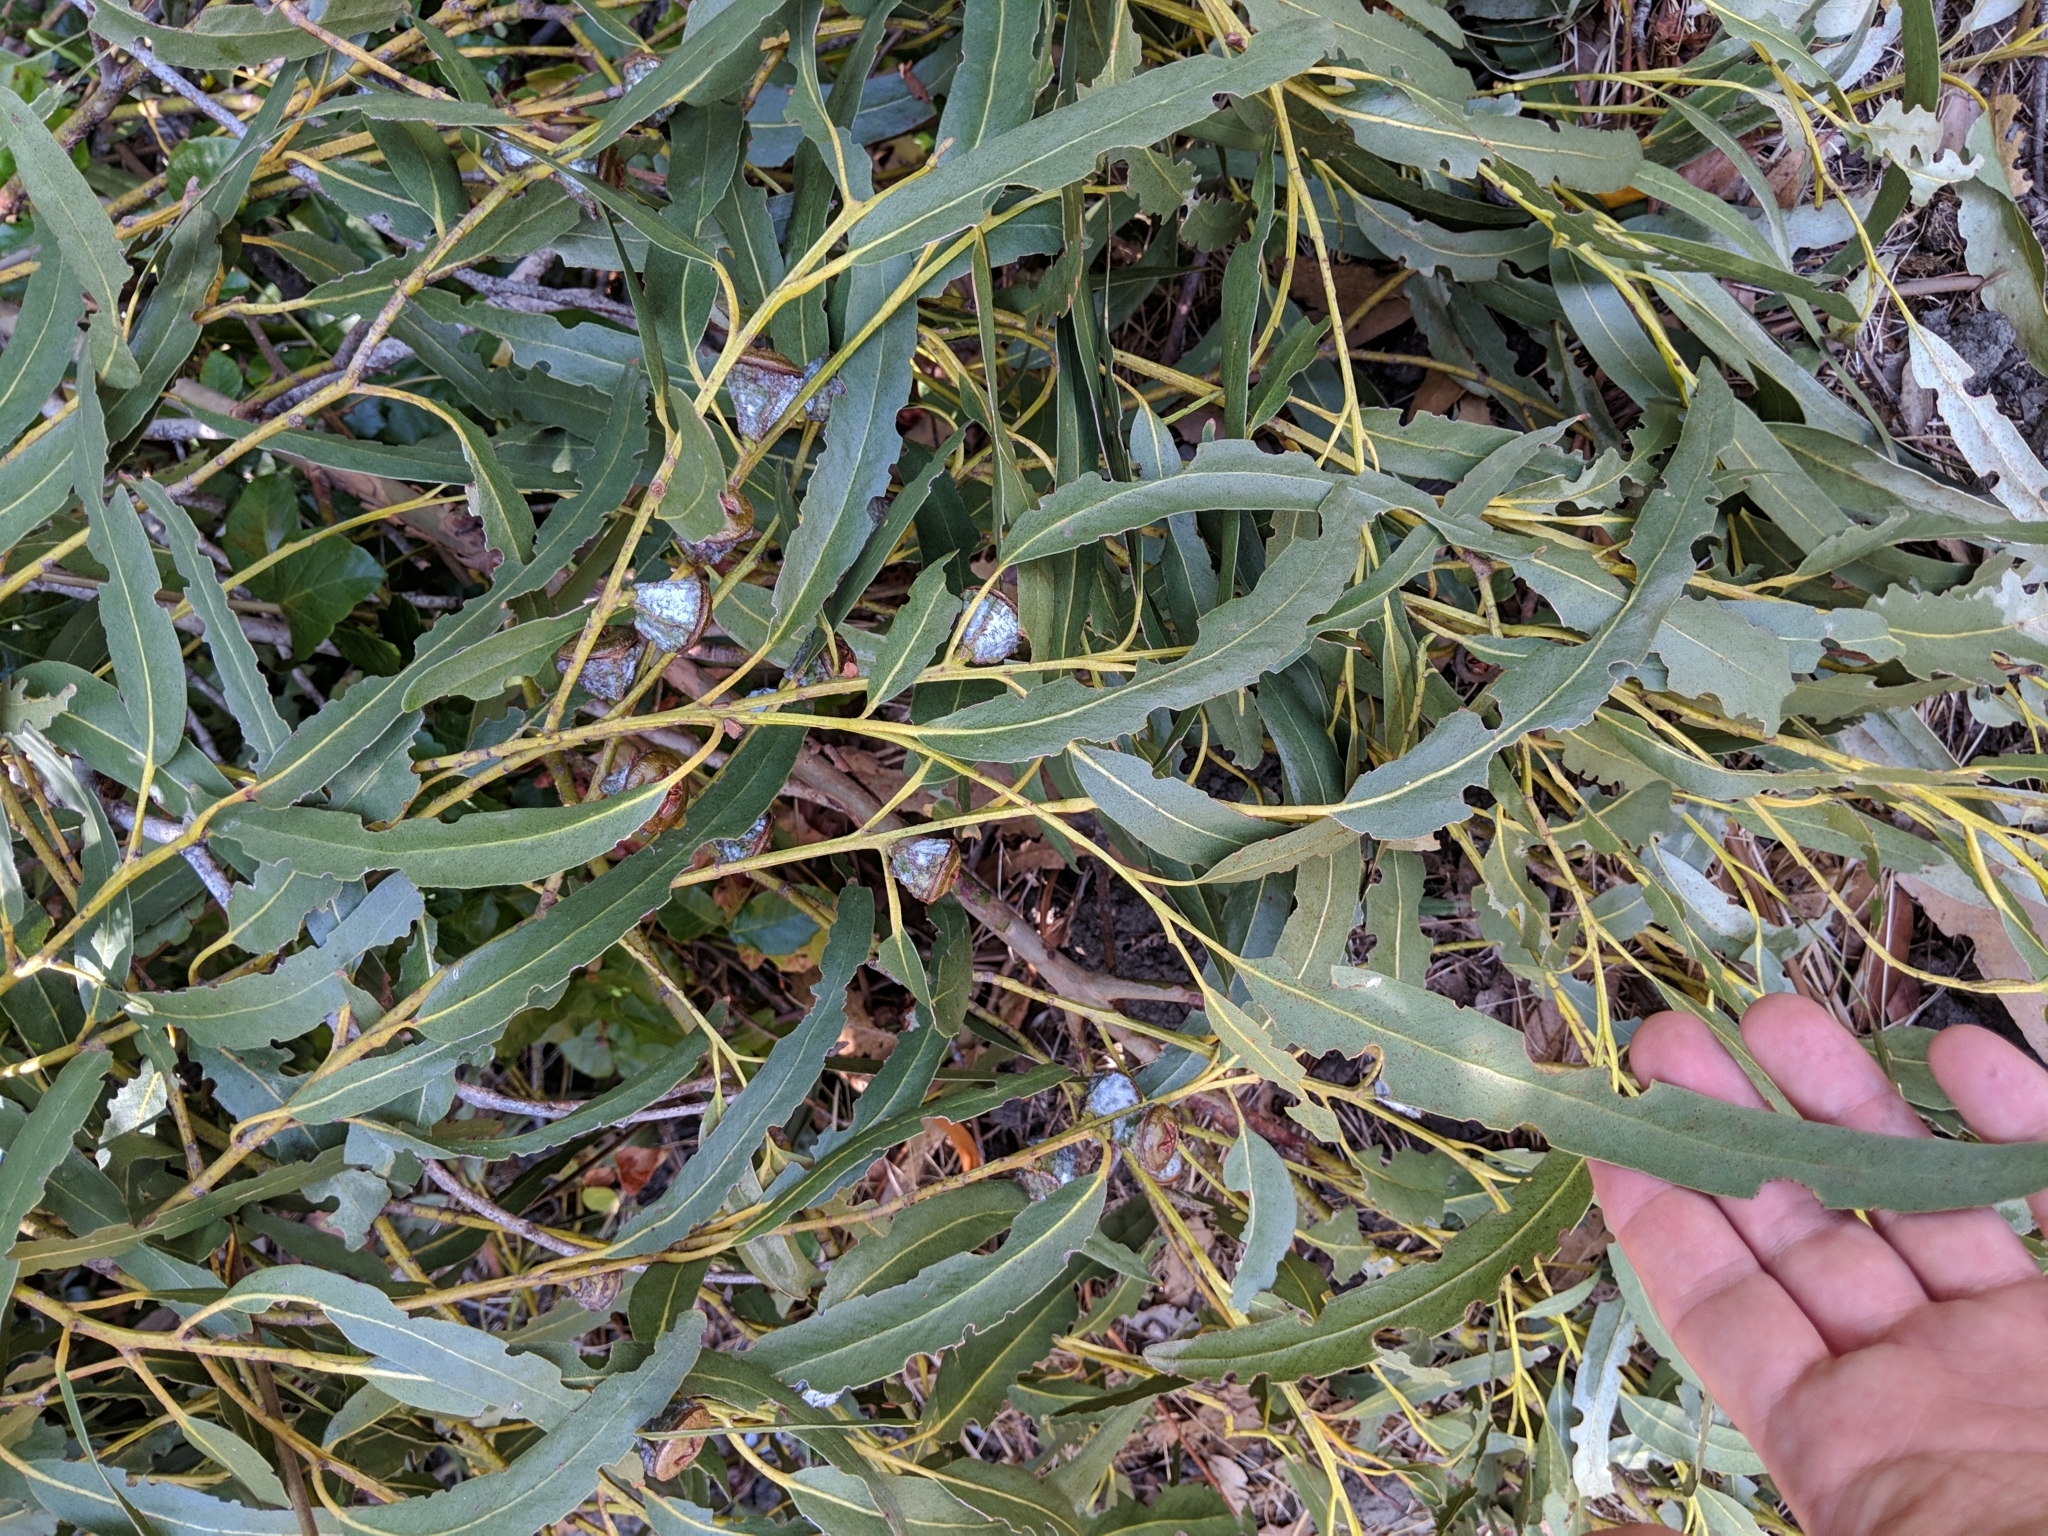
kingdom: Plantae
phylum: Tracheophyta
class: Magnoliopsida
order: Myrtales
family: Myrtaceae
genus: Eucalyptus
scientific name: Eucalyptus globulus
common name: Southern blue-gum
